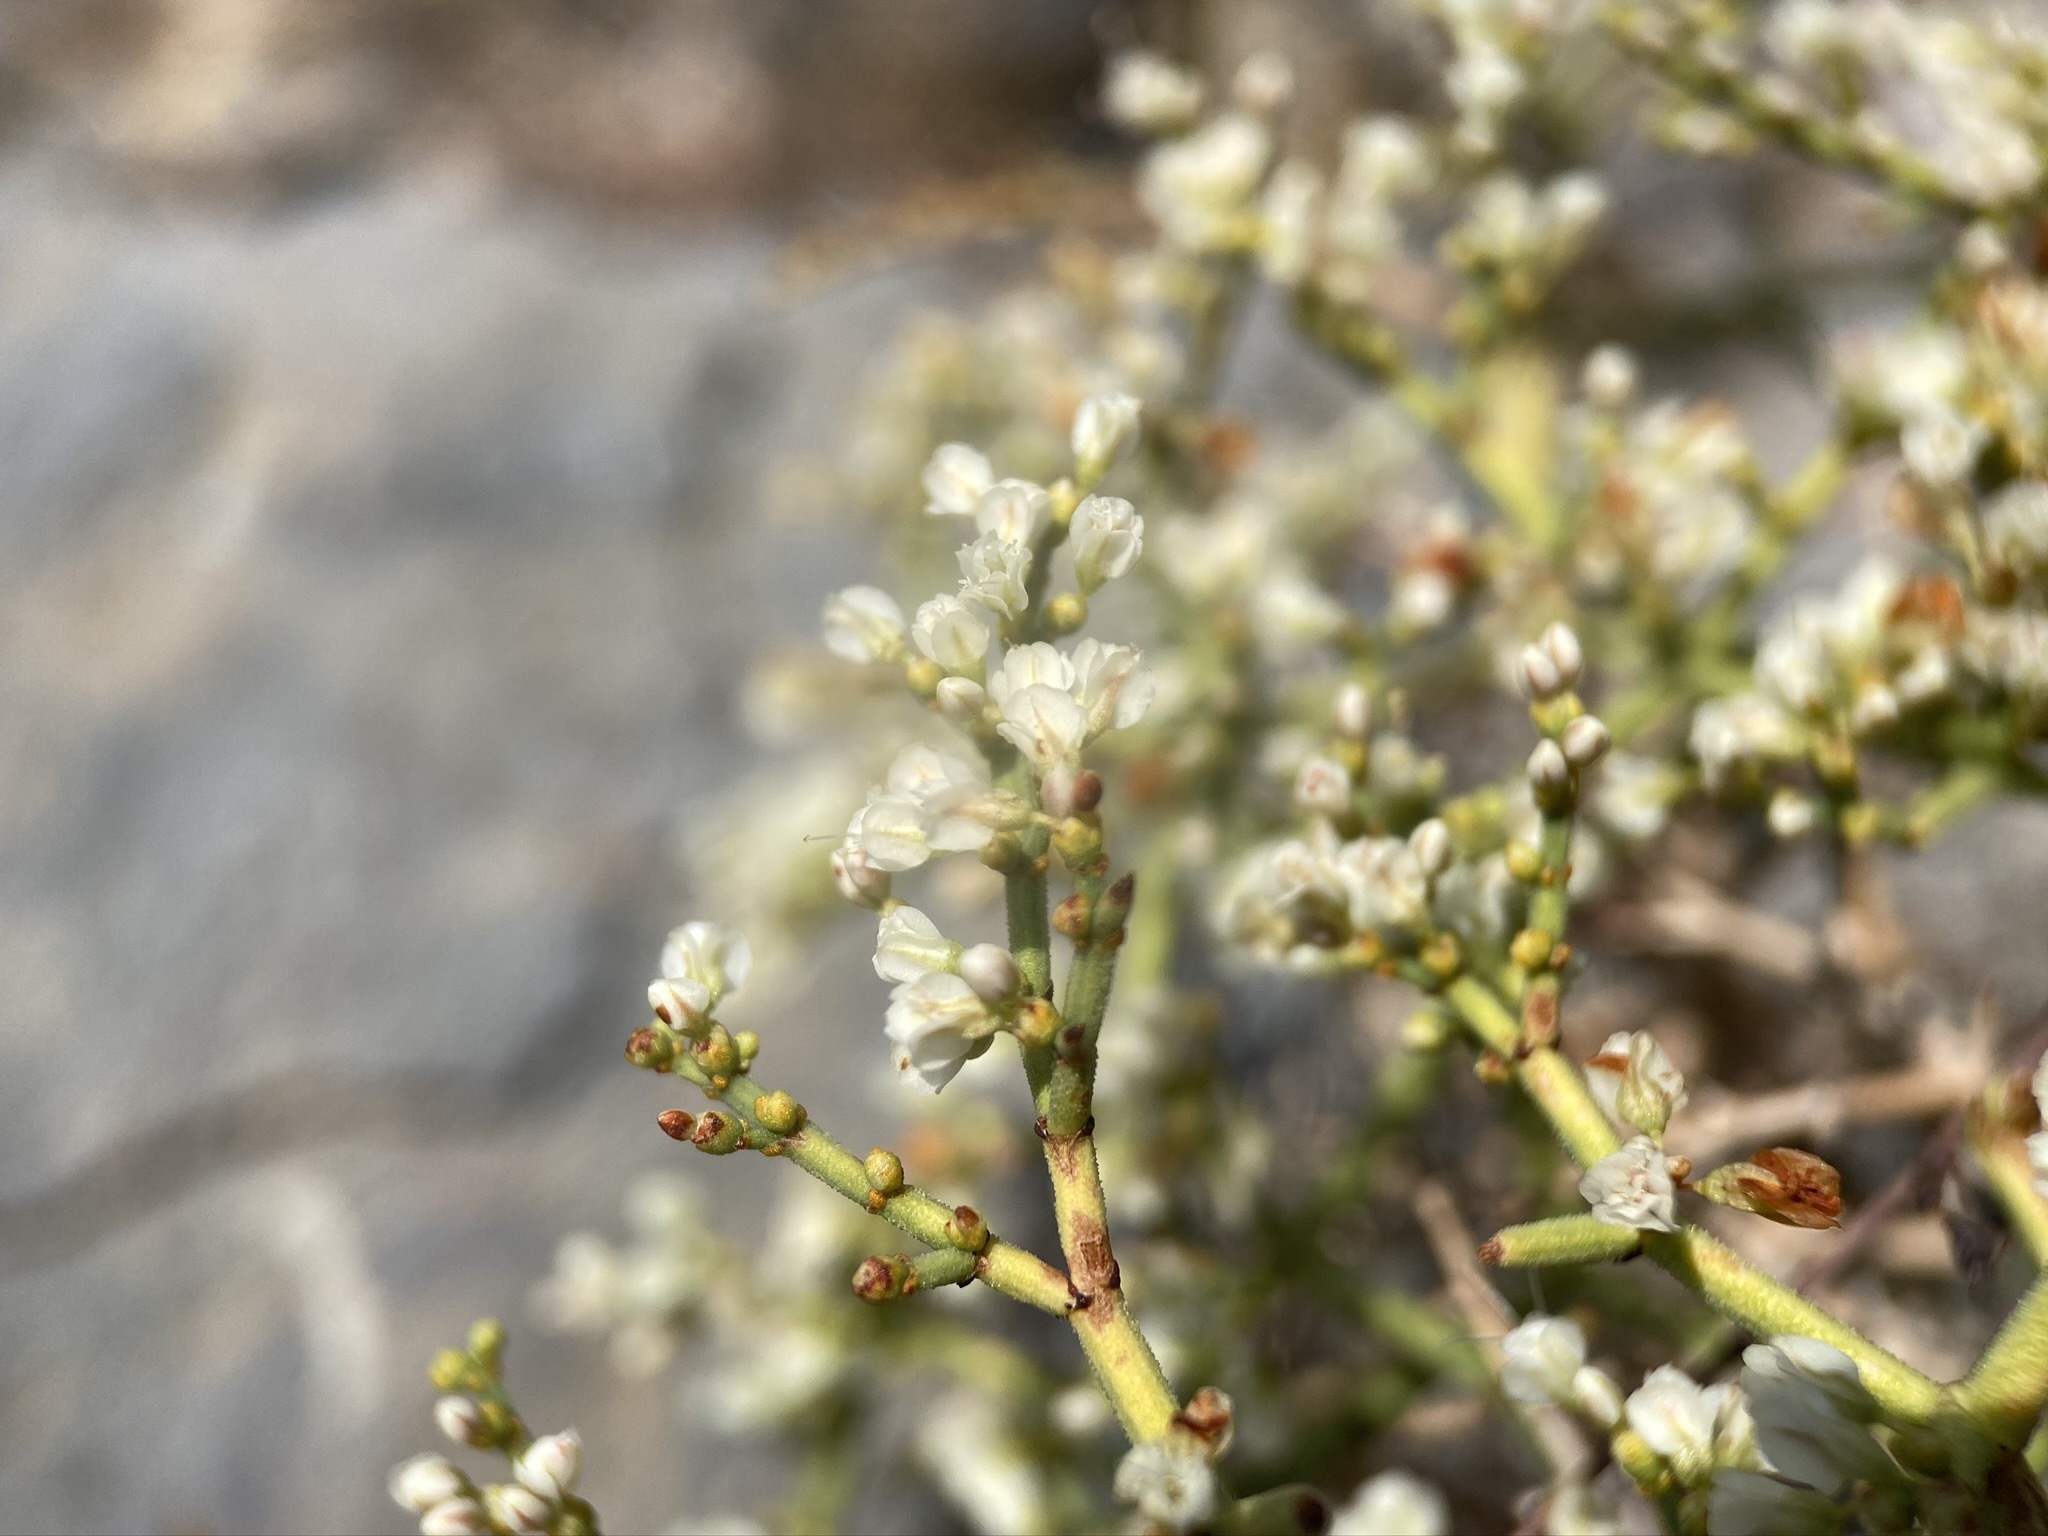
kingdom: Plantae
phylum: Tracheophyta
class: Magnoliopsida
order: Caryophyllales
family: Polygonaceae
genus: Eriogonum
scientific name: Eriogonum heermannii
